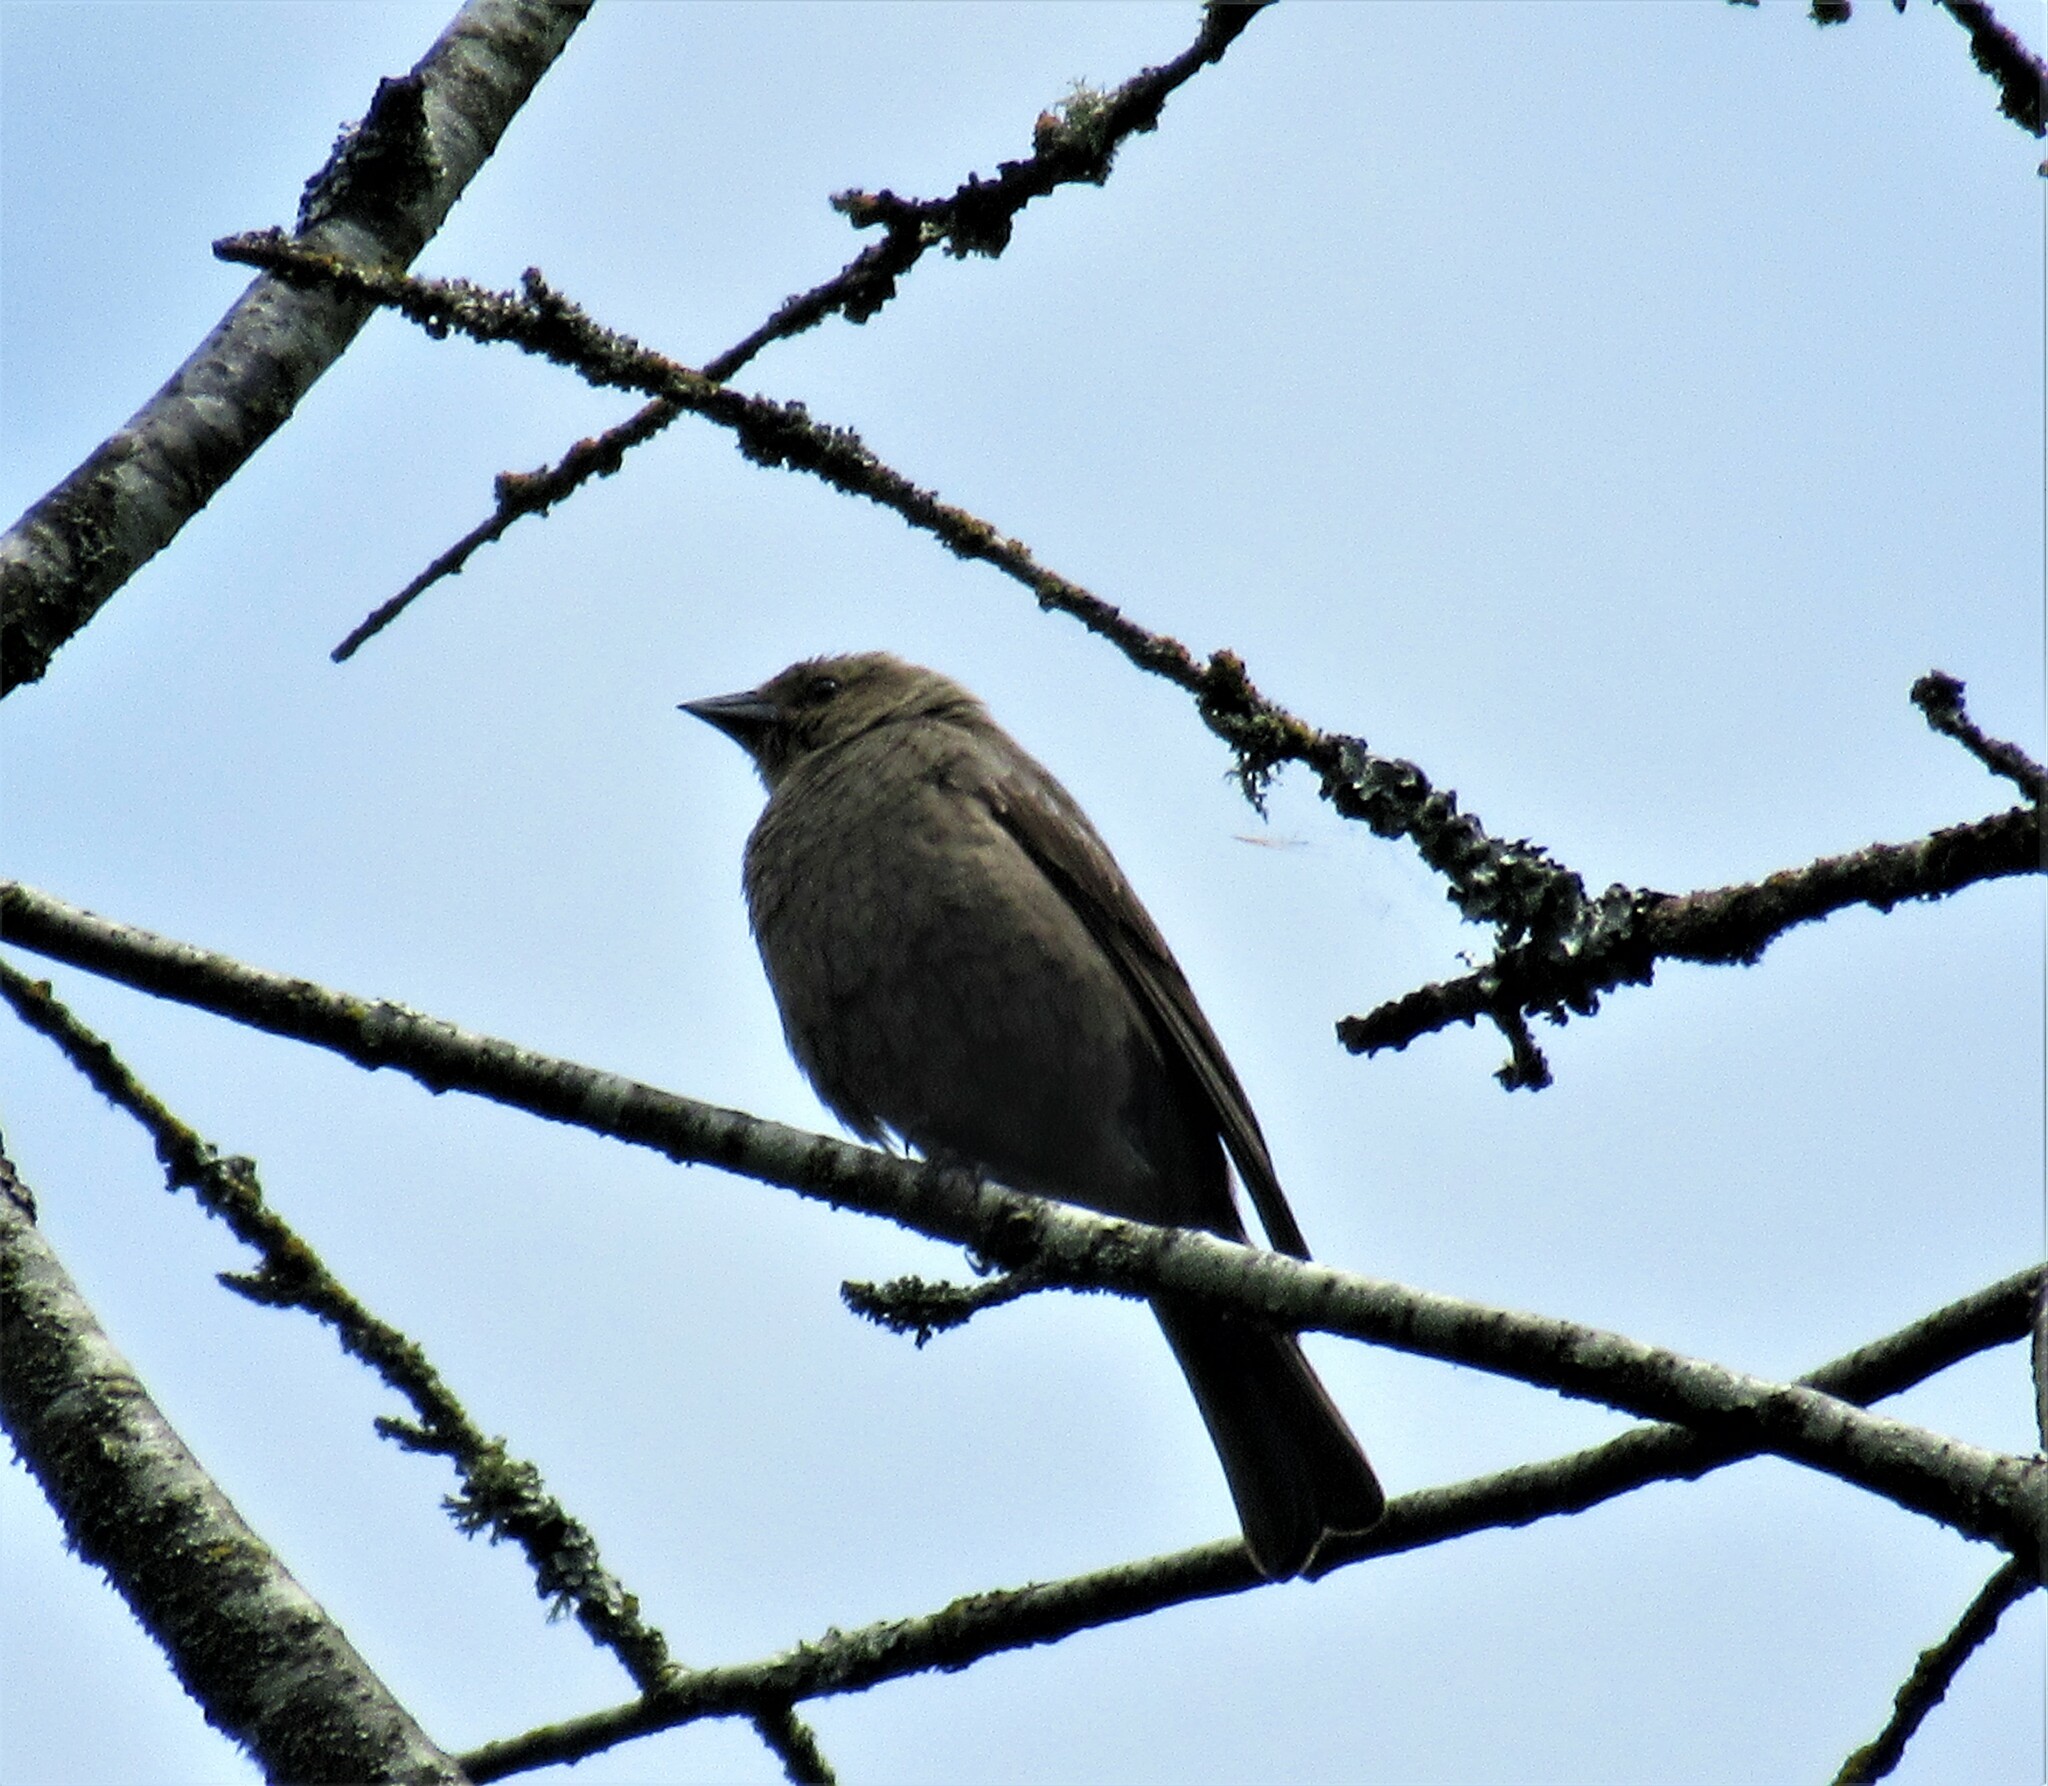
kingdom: Animalia
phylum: Chordata
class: Aves
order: Passeriformes
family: Icteridae
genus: Molothrus
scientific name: Molothrus ater
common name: Brown-headed cowbird
